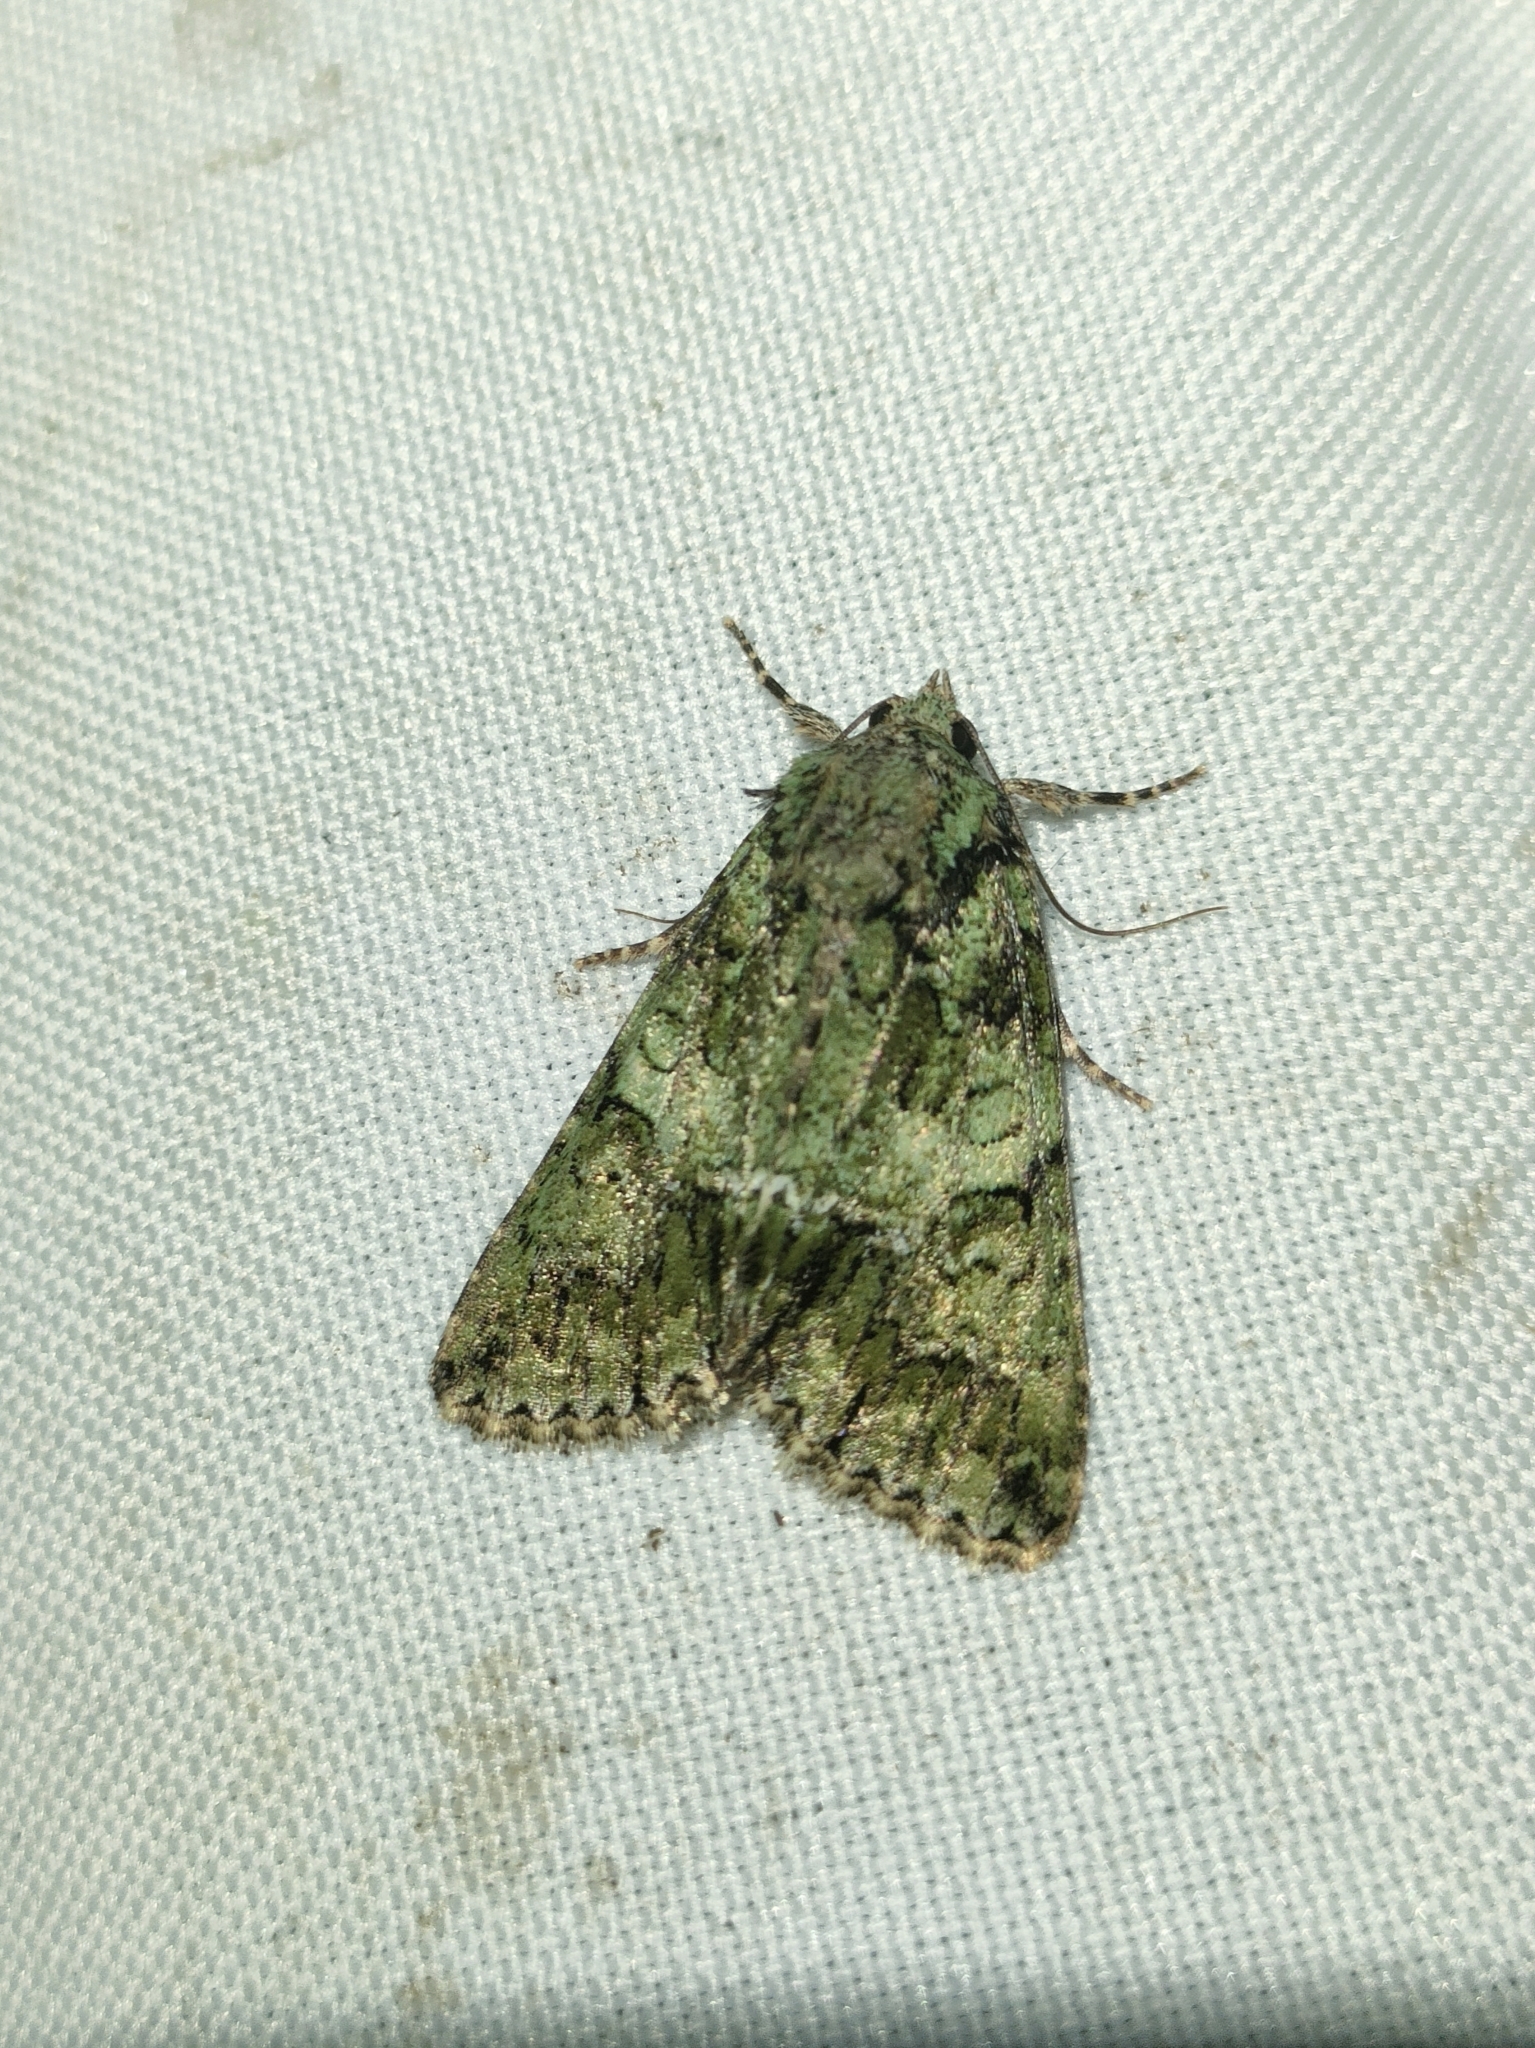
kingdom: Animalia
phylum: Arthropoda
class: Insecta
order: Lepidoptera
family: Noctuidae
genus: Polyphaenis
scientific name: Polyphaenis sericata
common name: Guernsey underwing
